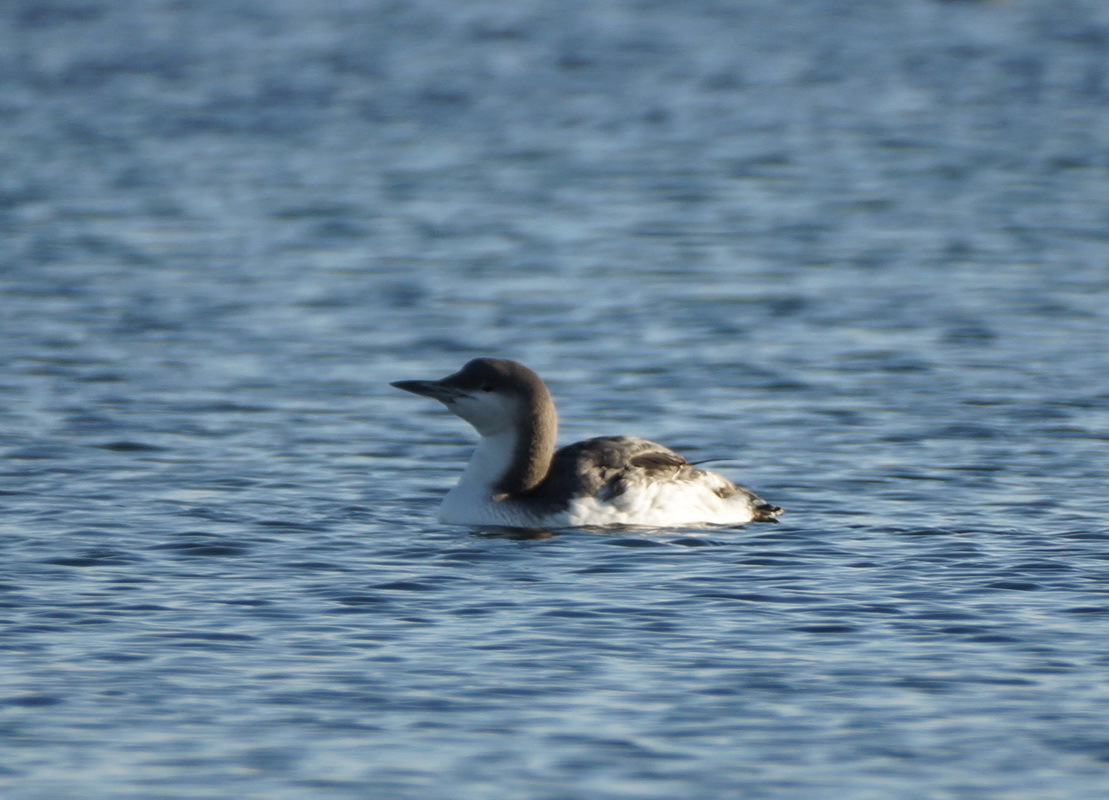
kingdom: Animalia
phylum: Chordata
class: Aves
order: Gaviiformes
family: Gaviidae
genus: Gavia
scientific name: Gavia arctica
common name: Black-throated loon
